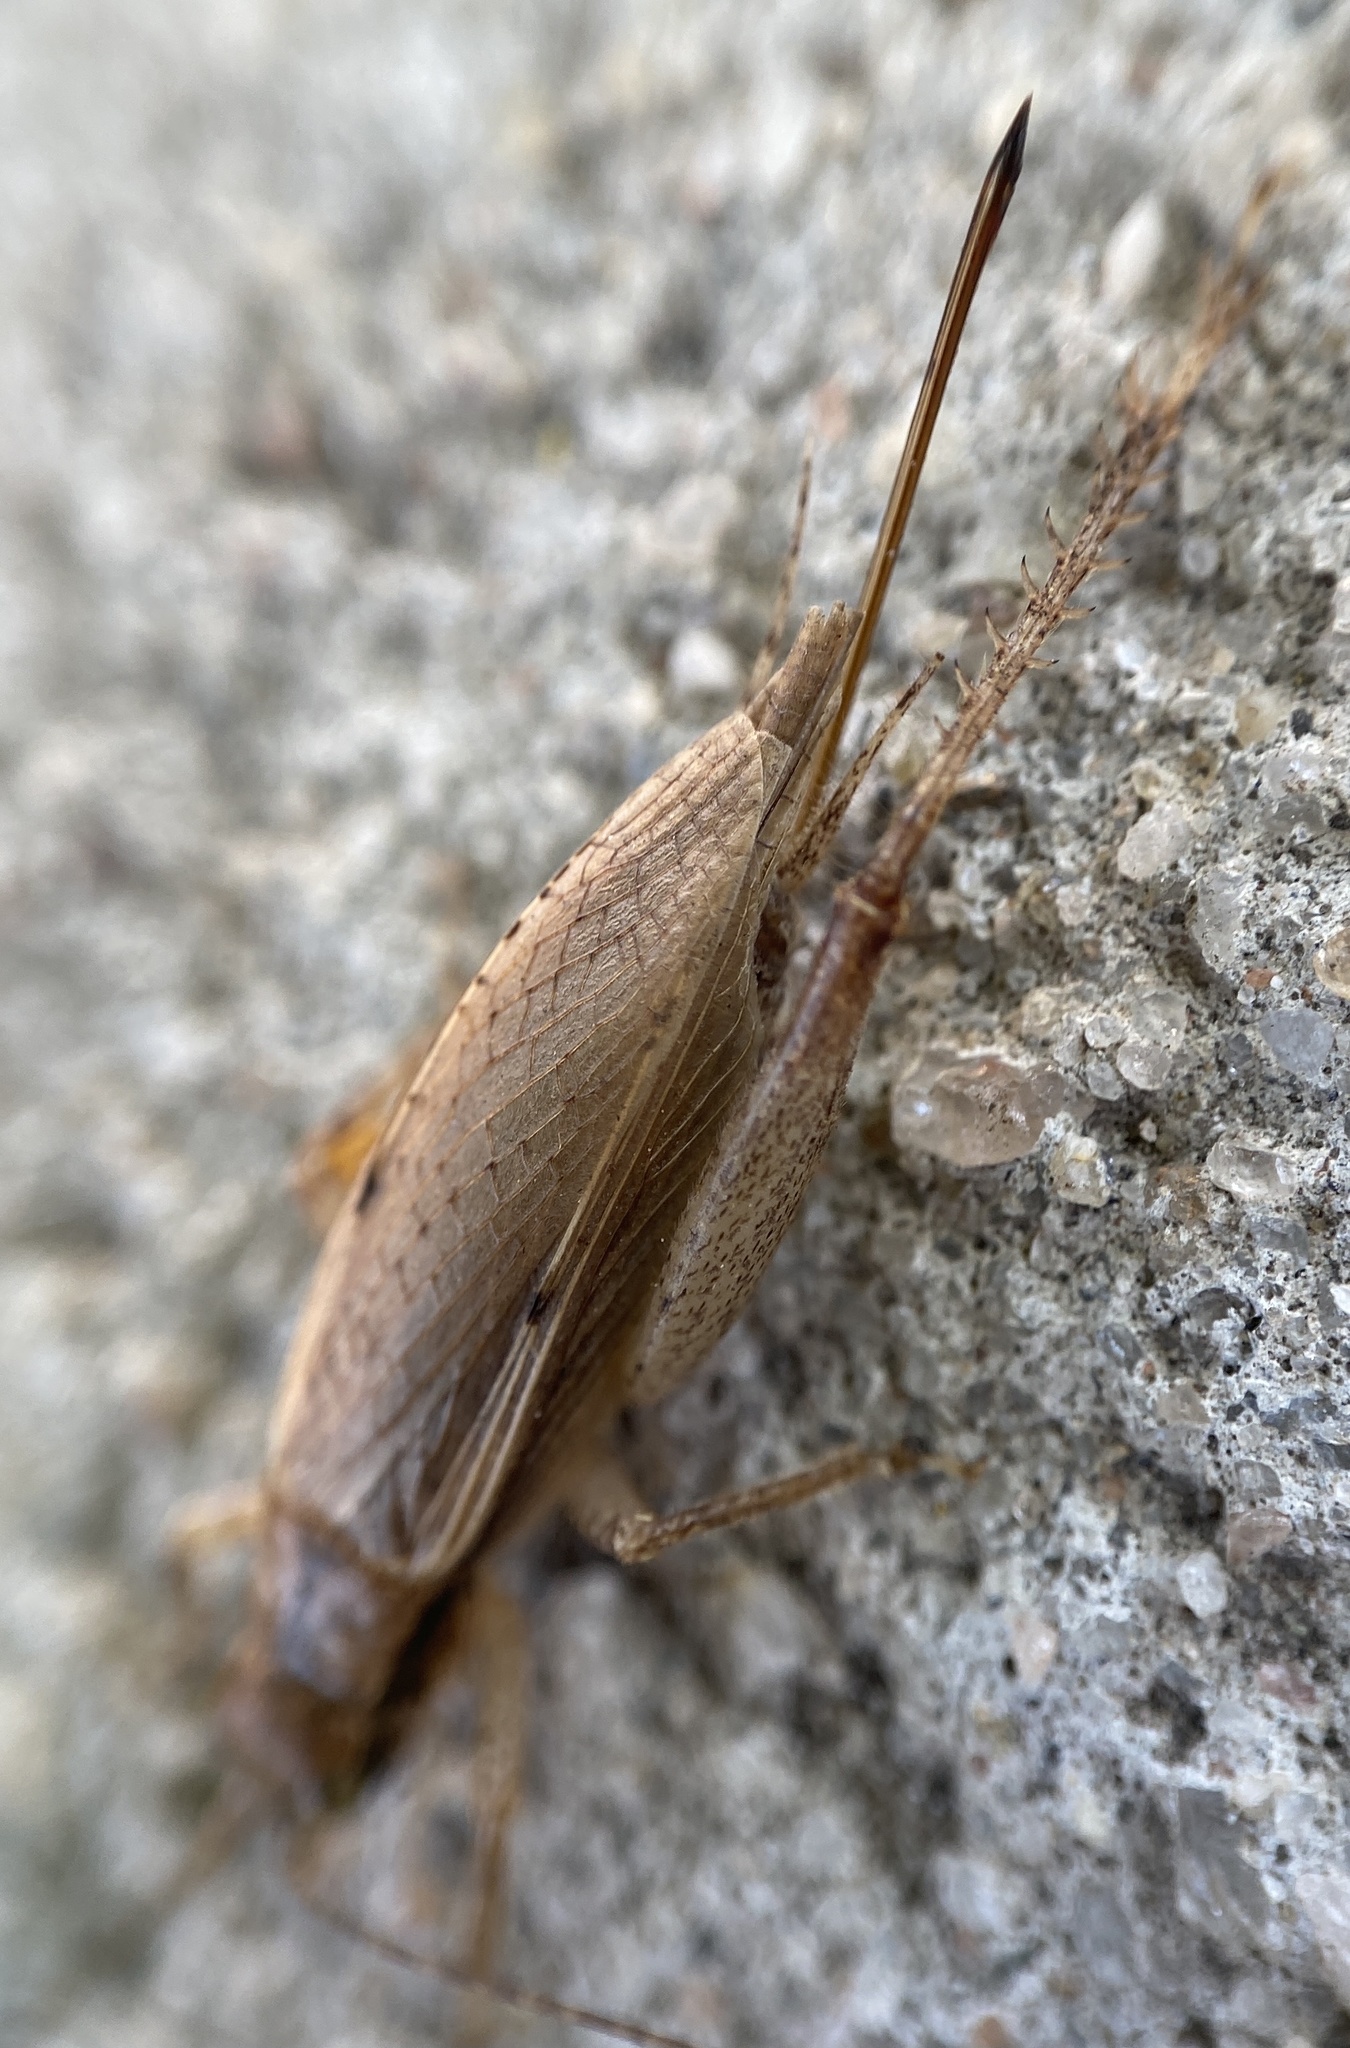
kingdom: Animalia
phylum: Arthropoda
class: Insecta
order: Orthoptera
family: Gryllidae
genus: Hapithus
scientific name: Hapithus saltator
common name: Jumping bush cricket
